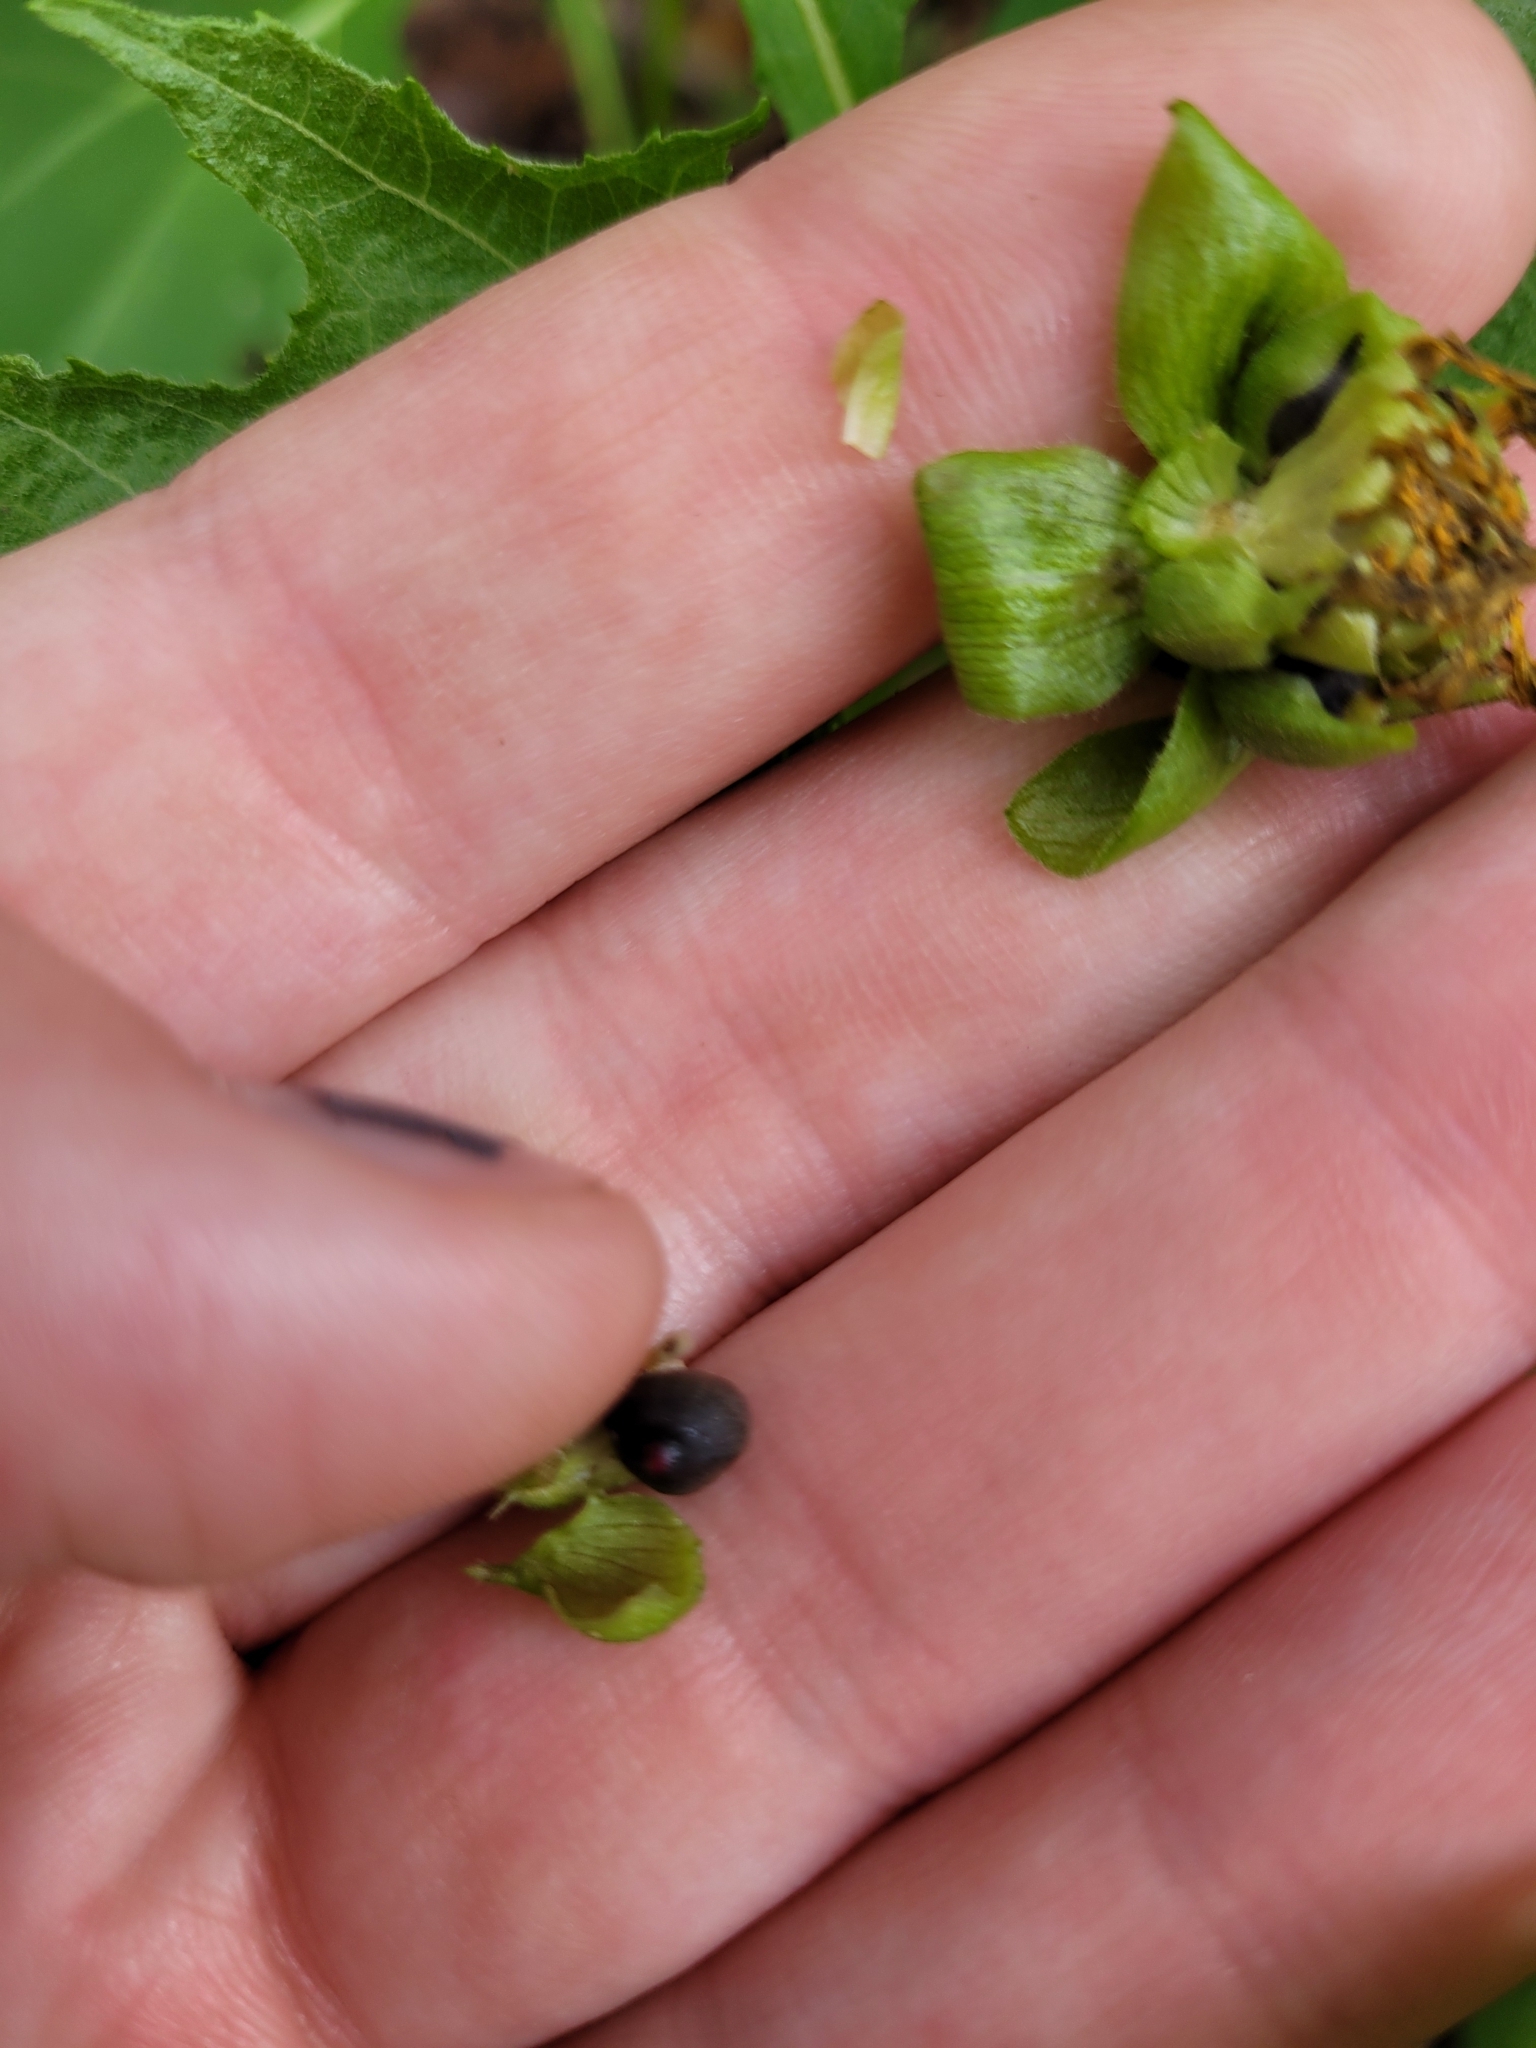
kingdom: Plantae
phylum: Tracheophyta
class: Magnoliopsida
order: Asterales
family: Asteraceae
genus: Smallanthus
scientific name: Smallanthus uvedalia
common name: Bear's-foot
